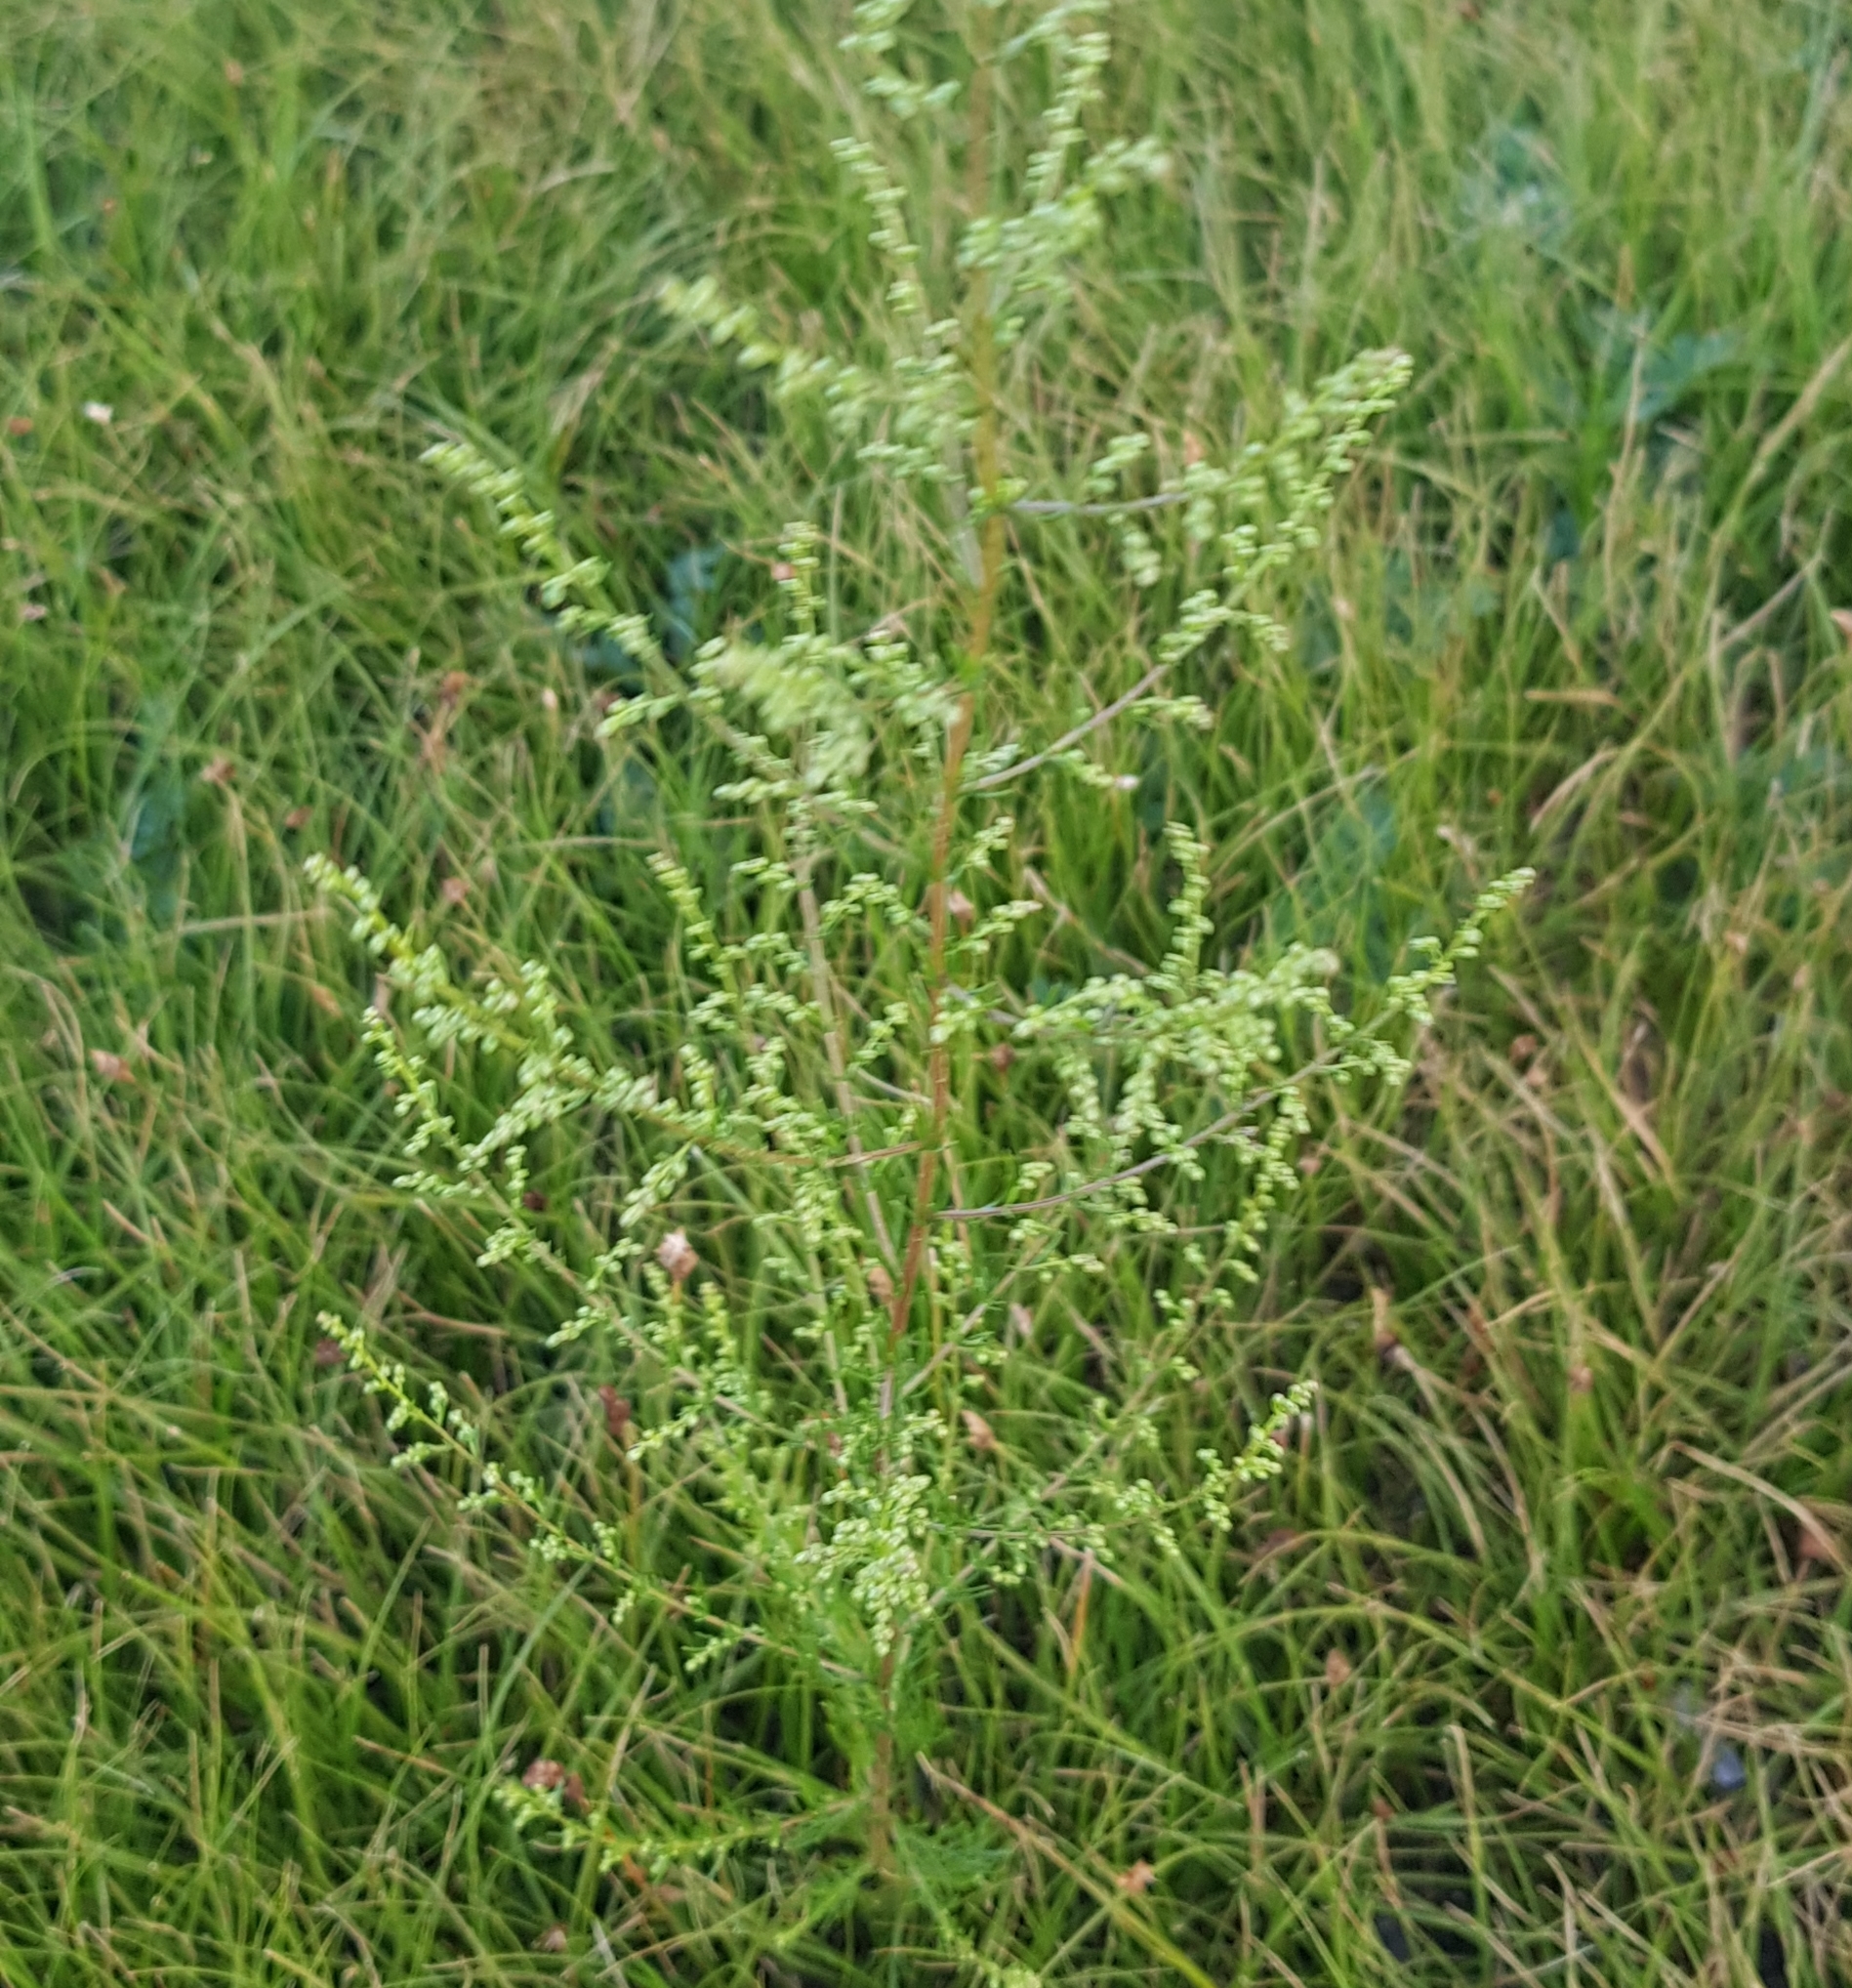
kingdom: Plantae
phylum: Tracheophyta
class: Magnoliopsida
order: Asterales
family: Asteraceae
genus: Artemisia
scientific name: Artemisia scoparia
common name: Redstem wormwood
